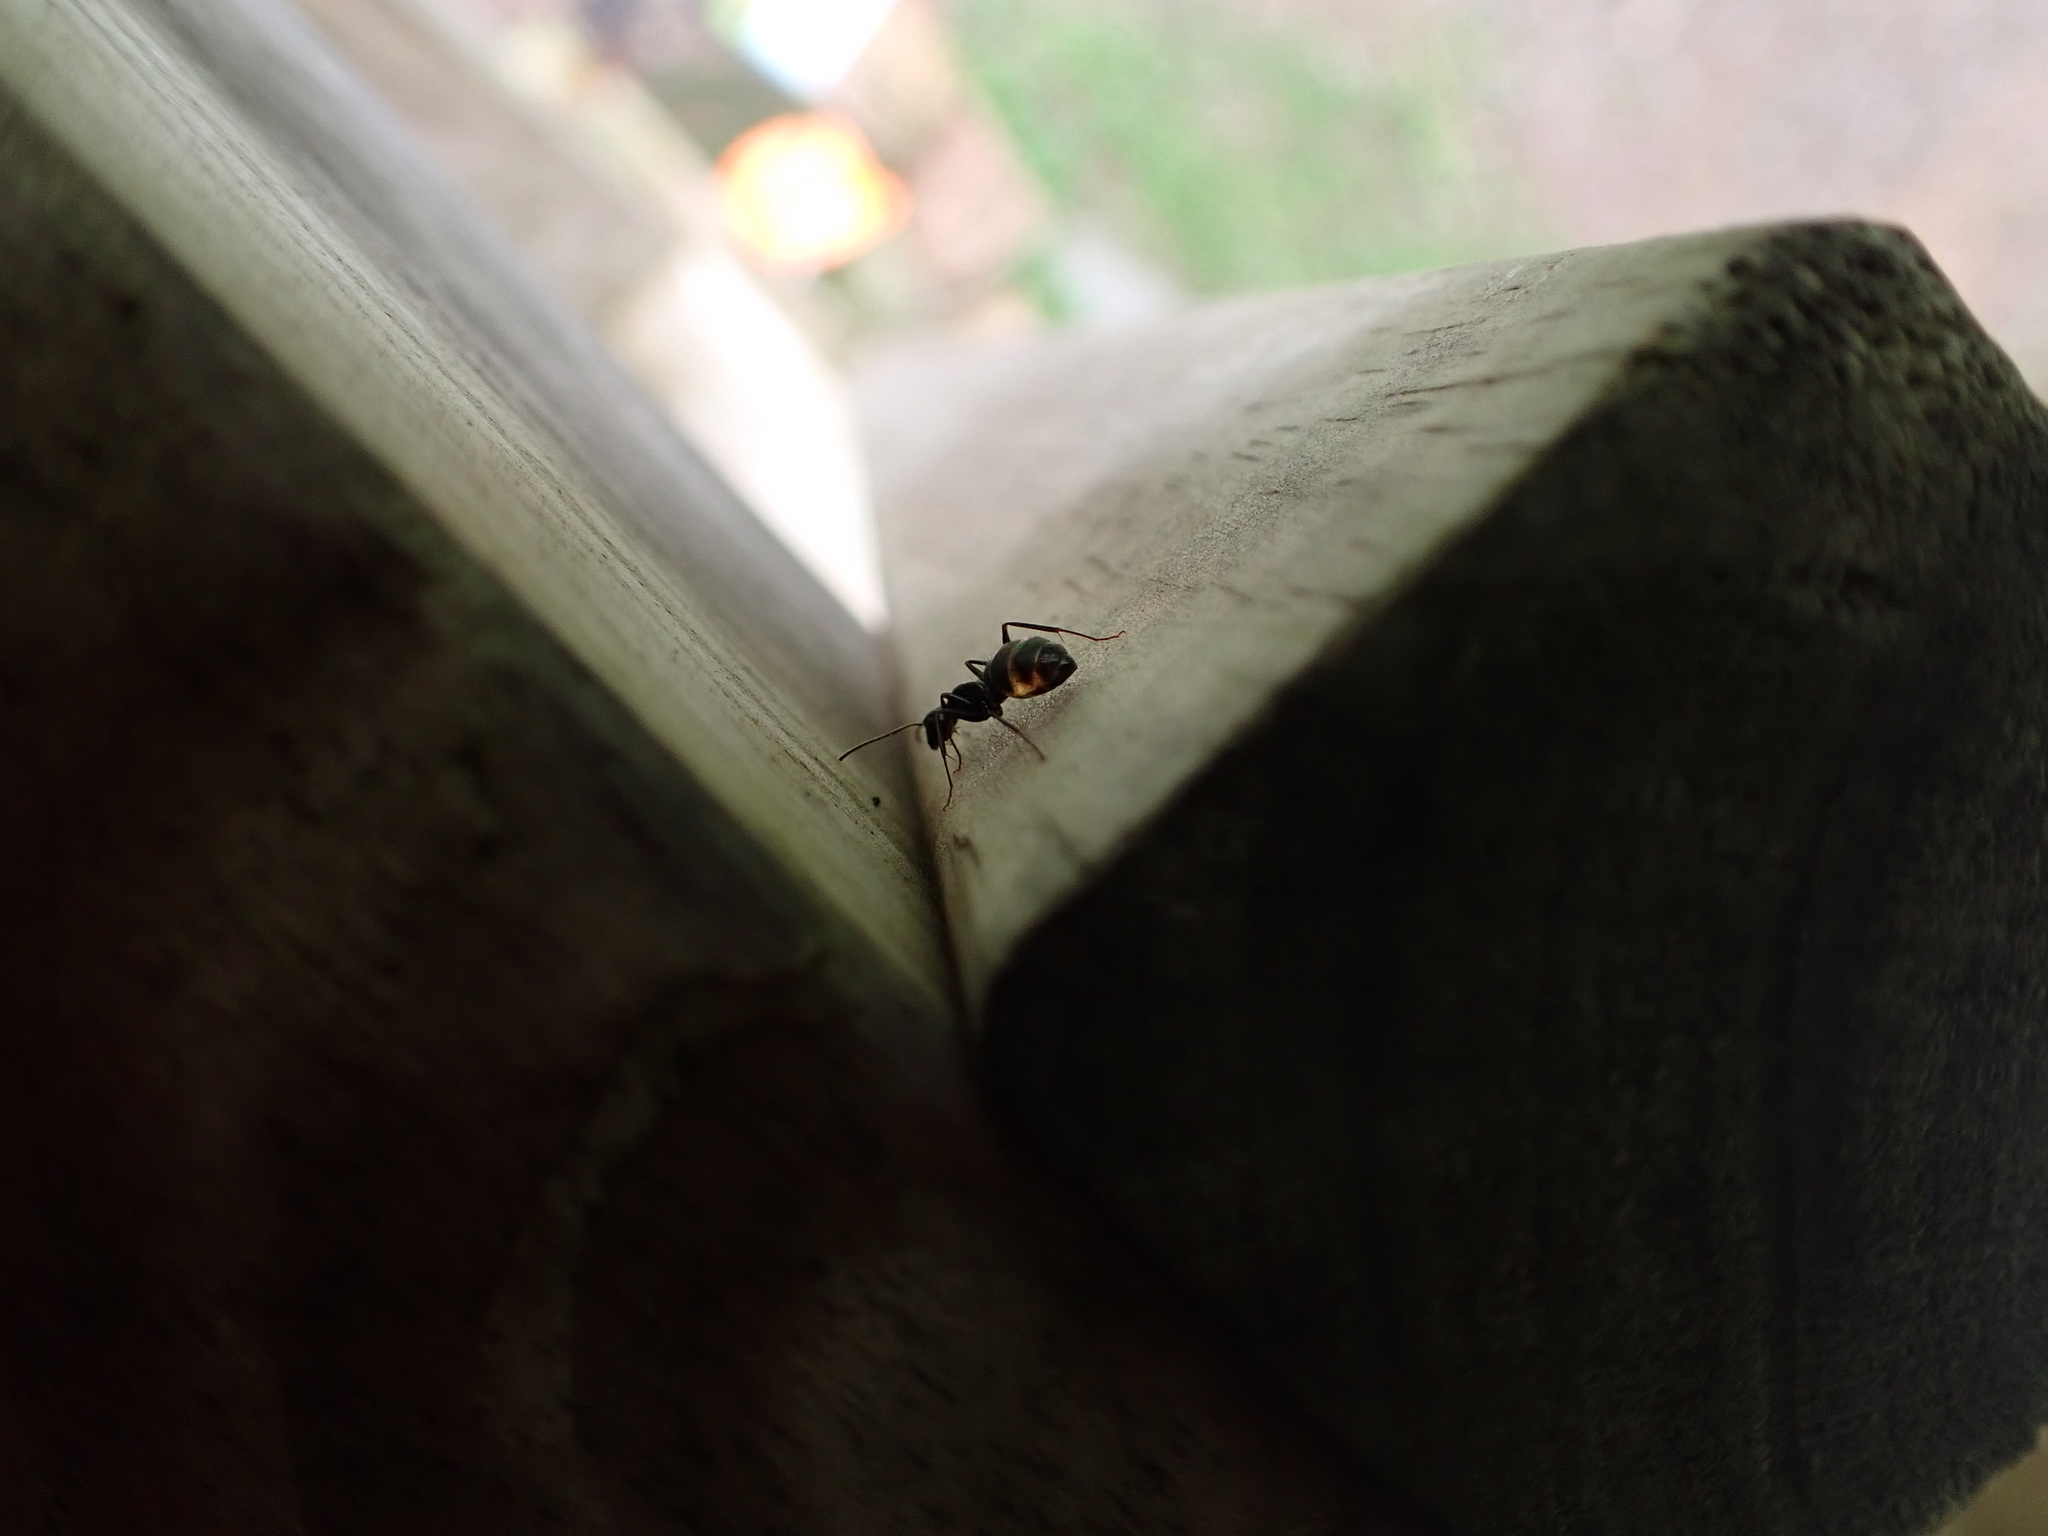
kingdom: Animalia
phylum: Arthropoda
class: Insecta
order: Hymenoptera
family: Formicidae
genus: Camponotus
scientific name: Camponotus pennsylvanicus
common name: Black carpenter ant
